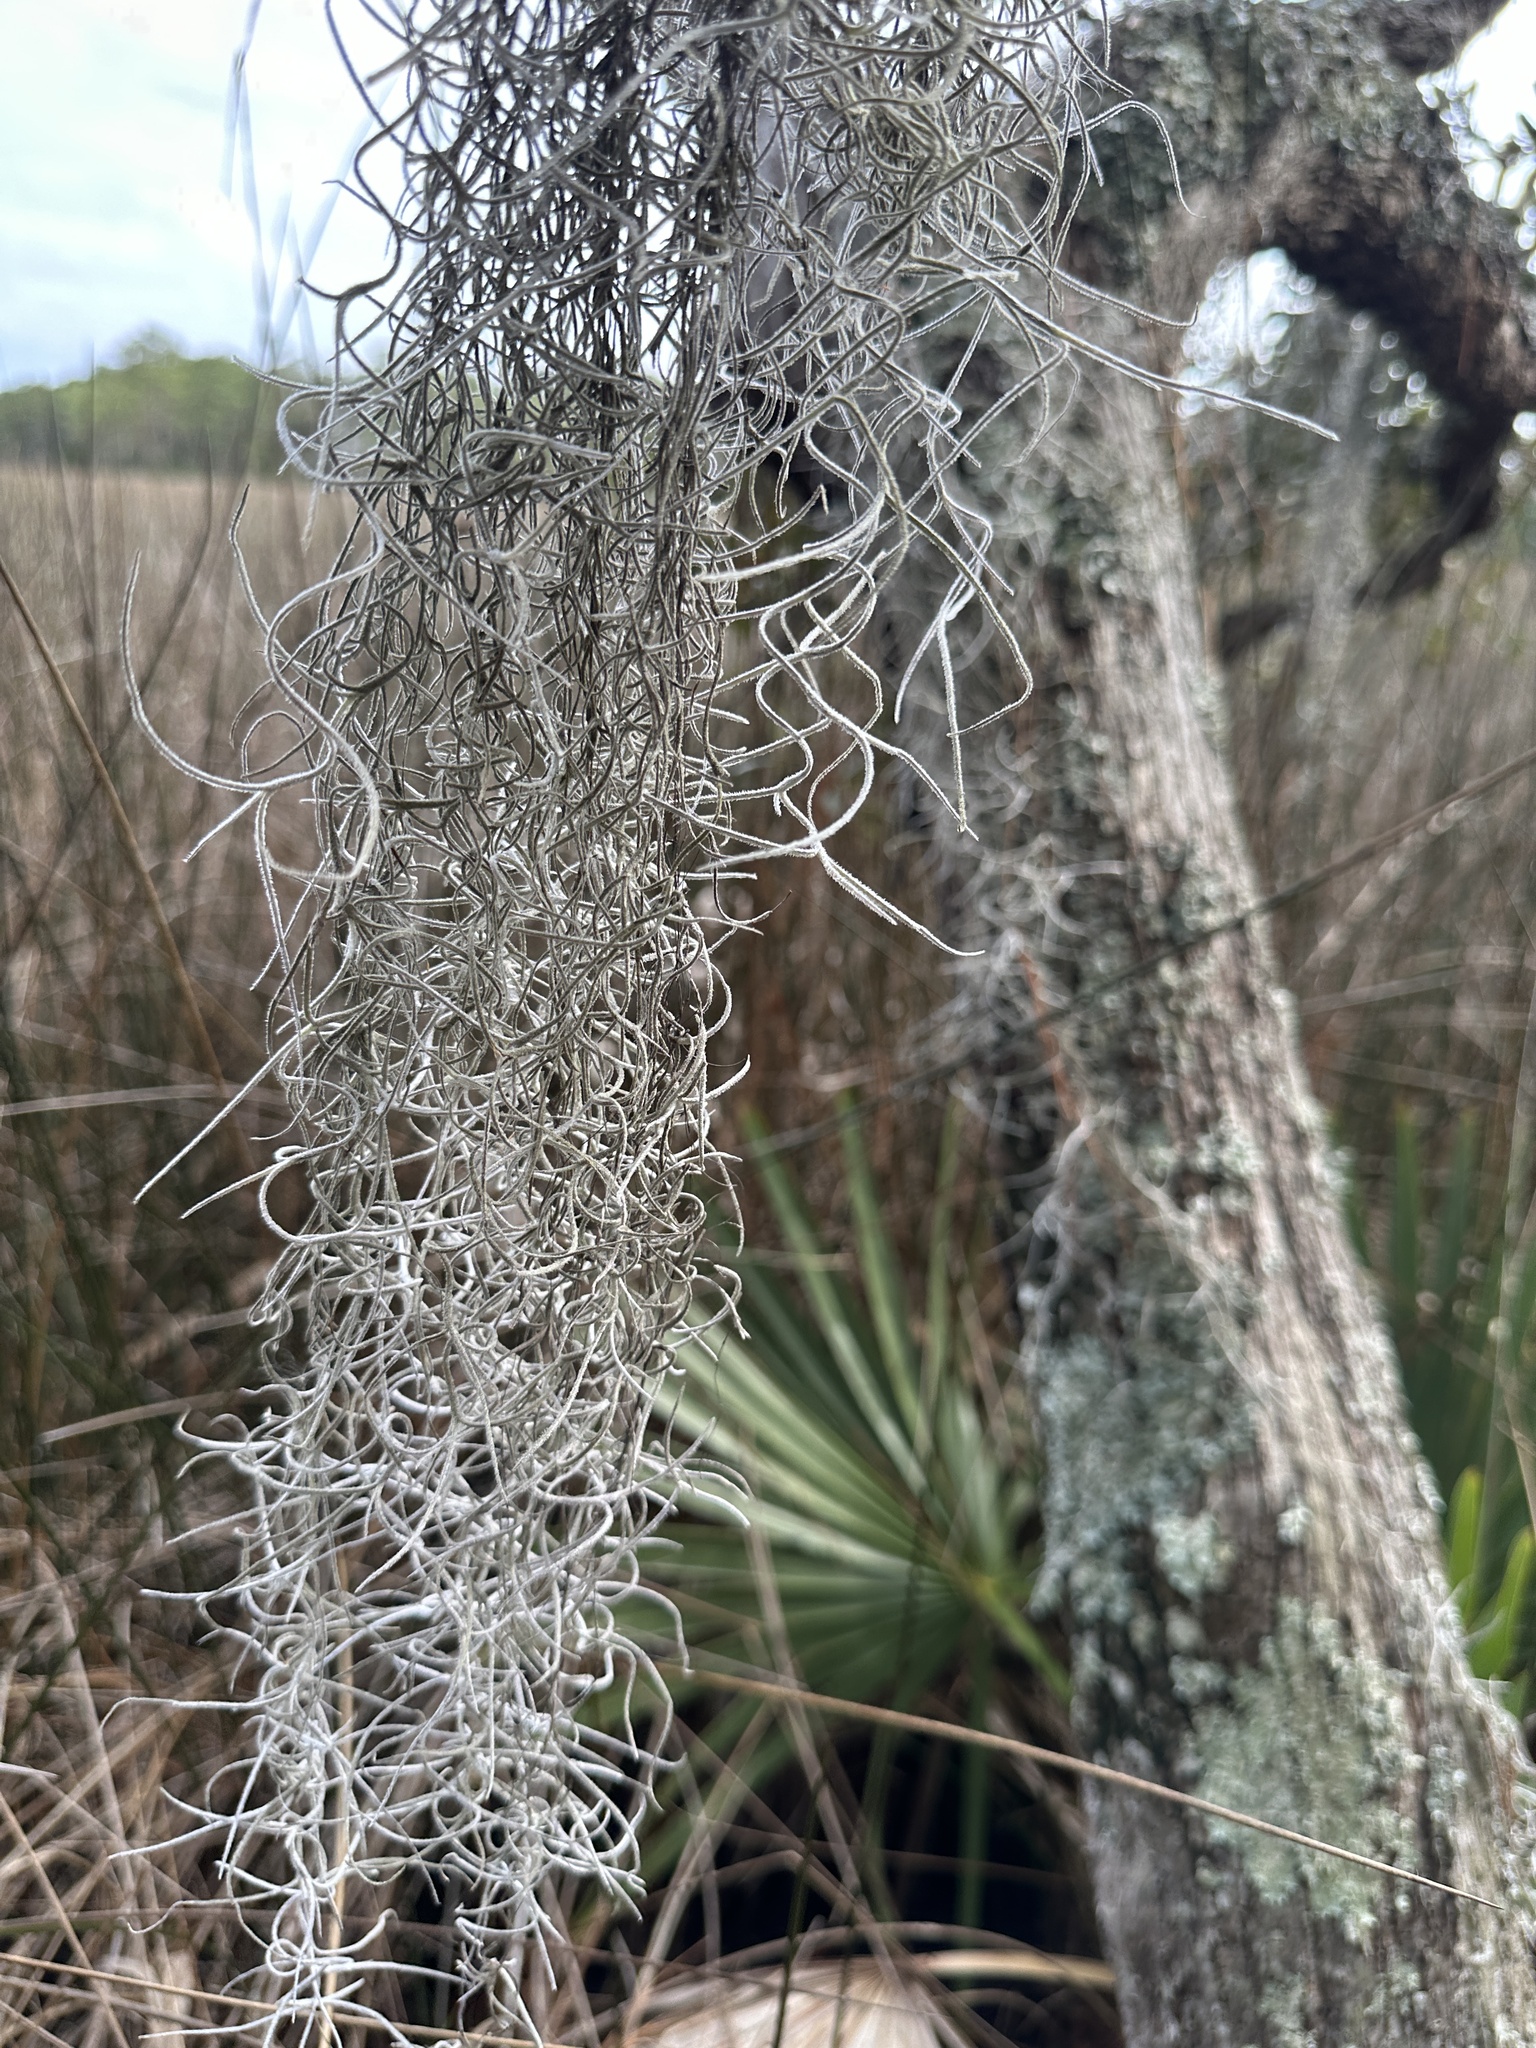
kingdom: Plantae
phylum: Tracheophyta
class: Liliopsida
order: Poales
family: Bromeliaceae
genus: Tillandsia
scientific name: Tillandsia usneoides
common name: Spanish moss
